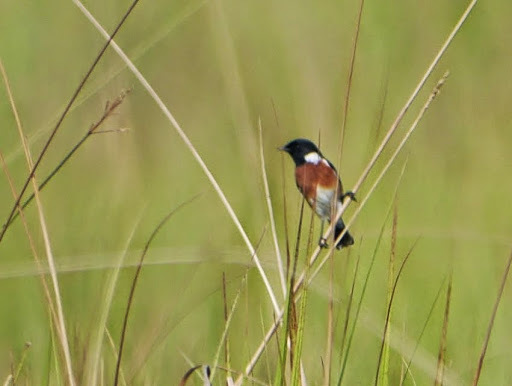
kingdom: Animalia
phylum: Chordata
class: Aves
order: Passeriformes
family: Muscicapidae
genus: Saxicola
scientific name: Saxicola torquatus
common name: African stonechat
